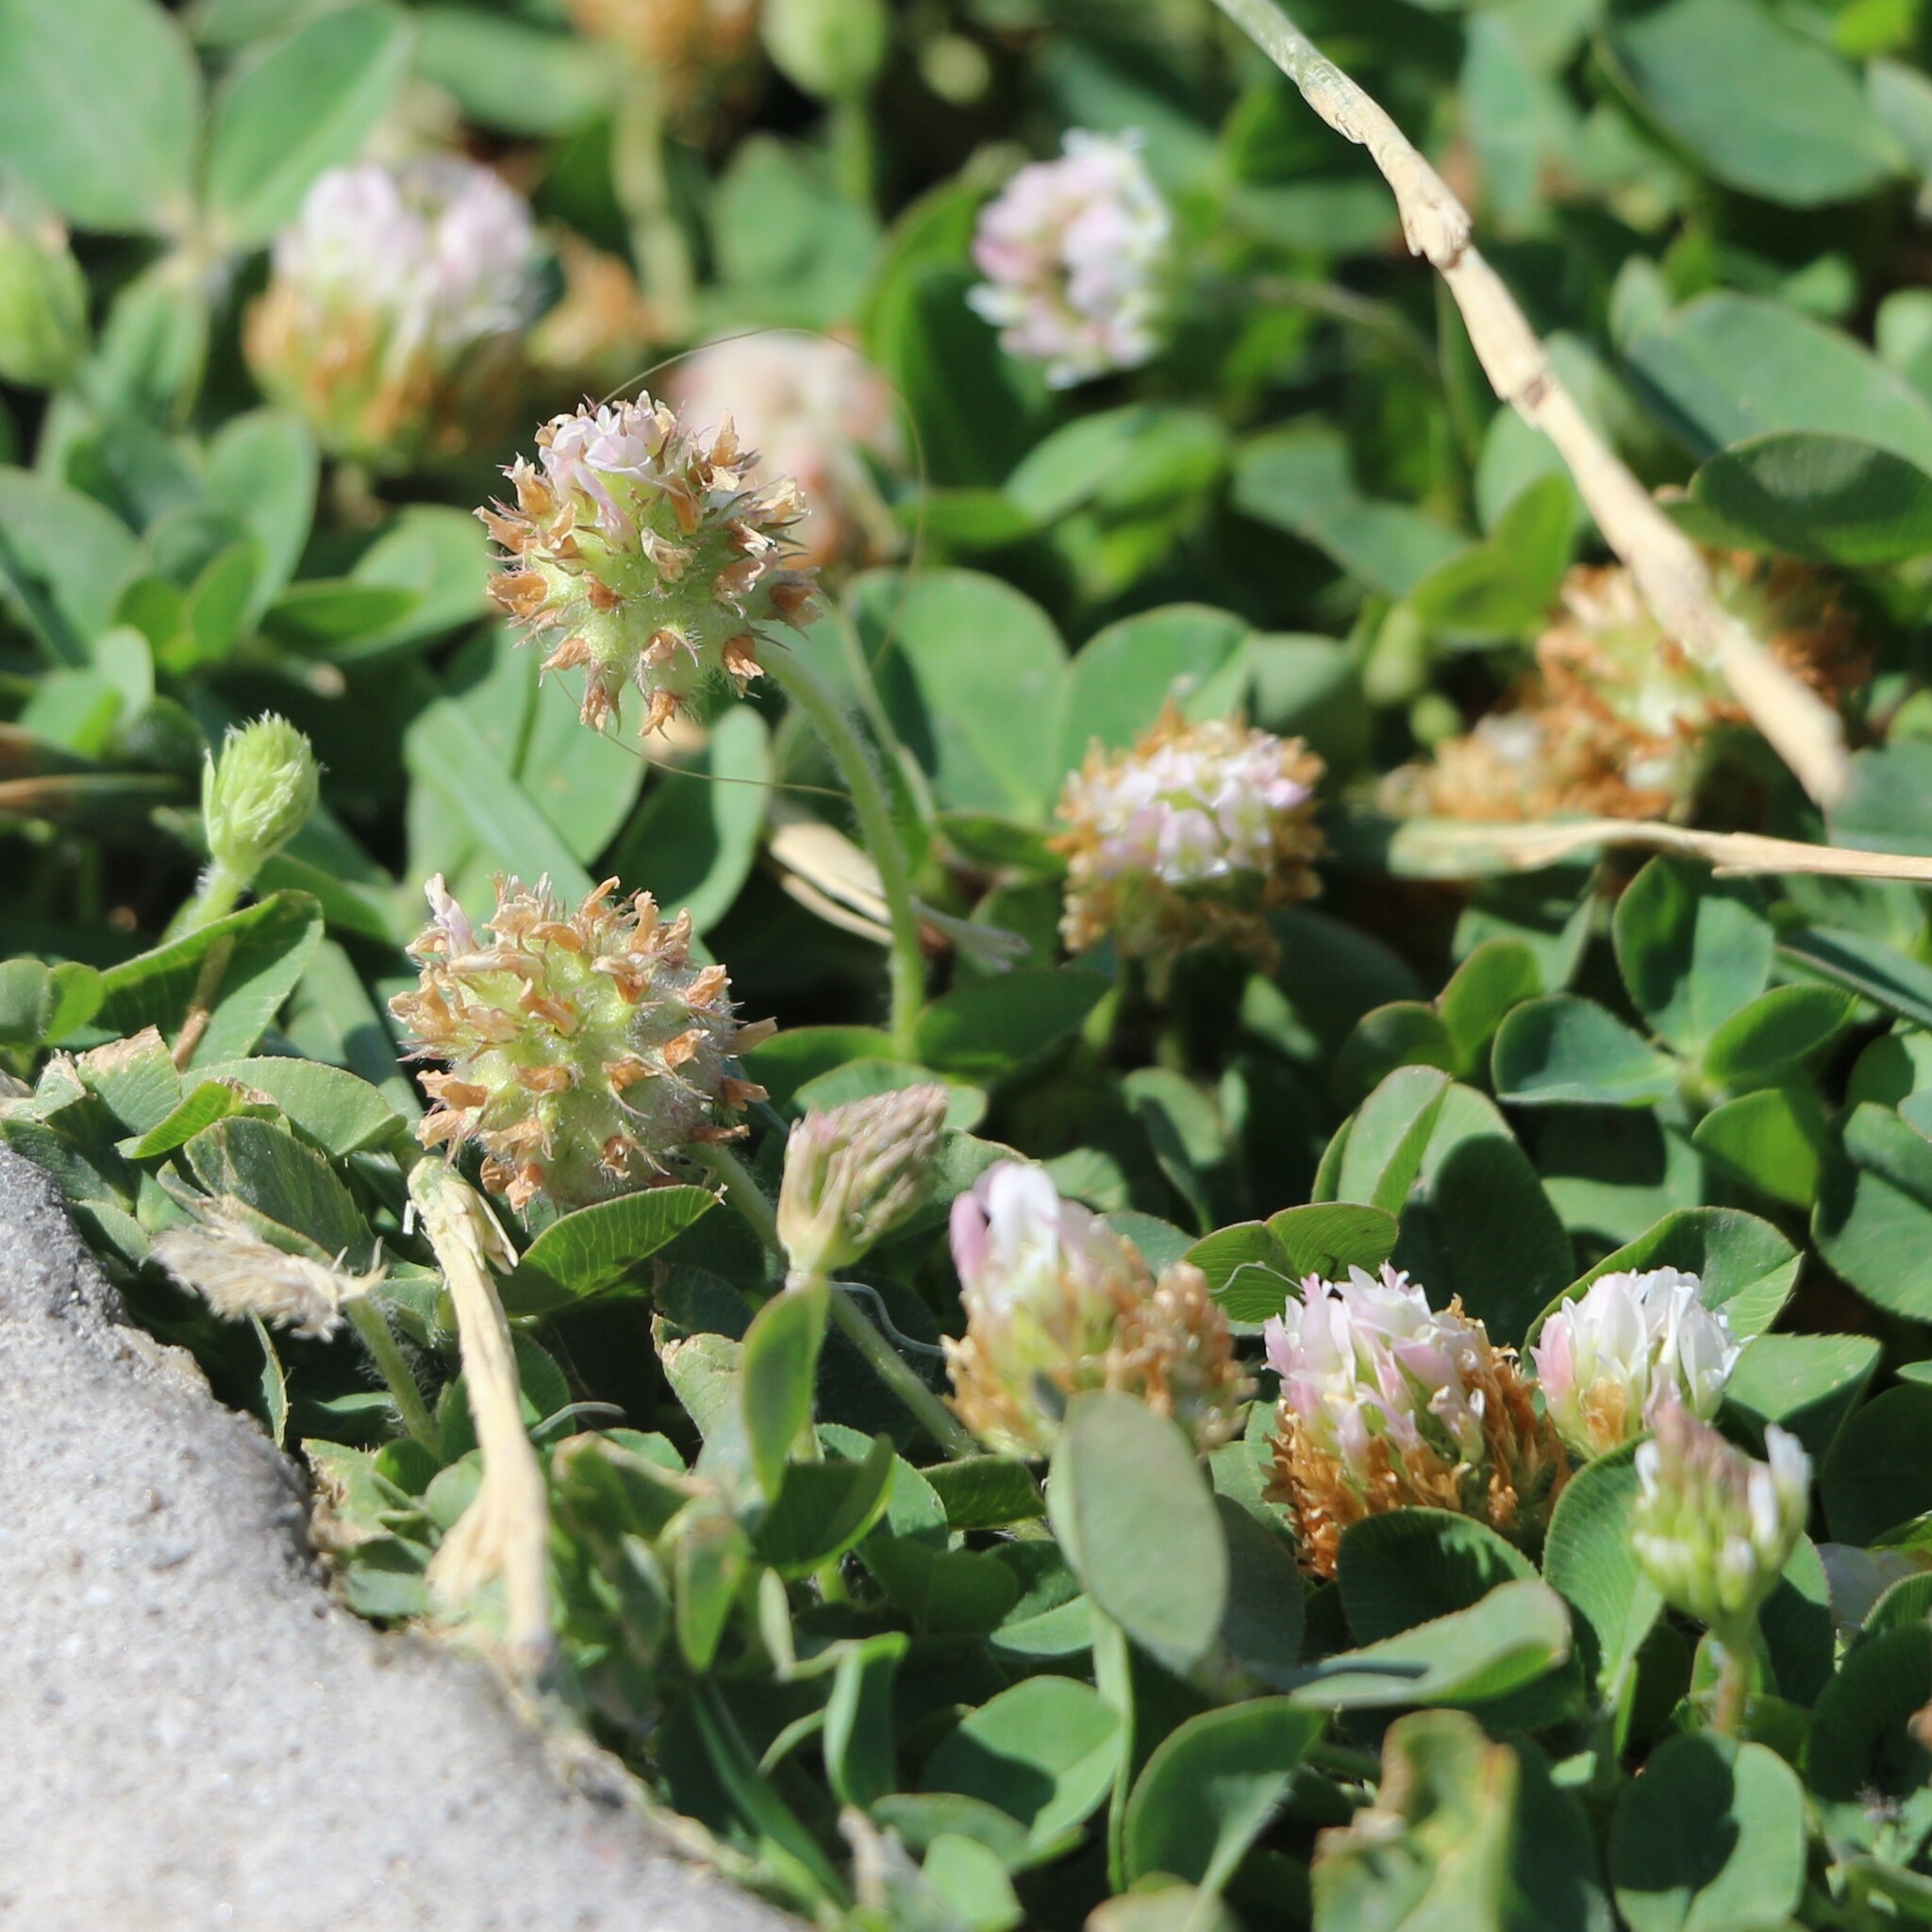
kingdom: Plantae
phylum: Tracheophyta
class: Magnoliopsida
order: Fabales
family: Fabaceae
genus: Trifolium
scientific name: Trifolium fragiferum
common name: Strawberry clover
